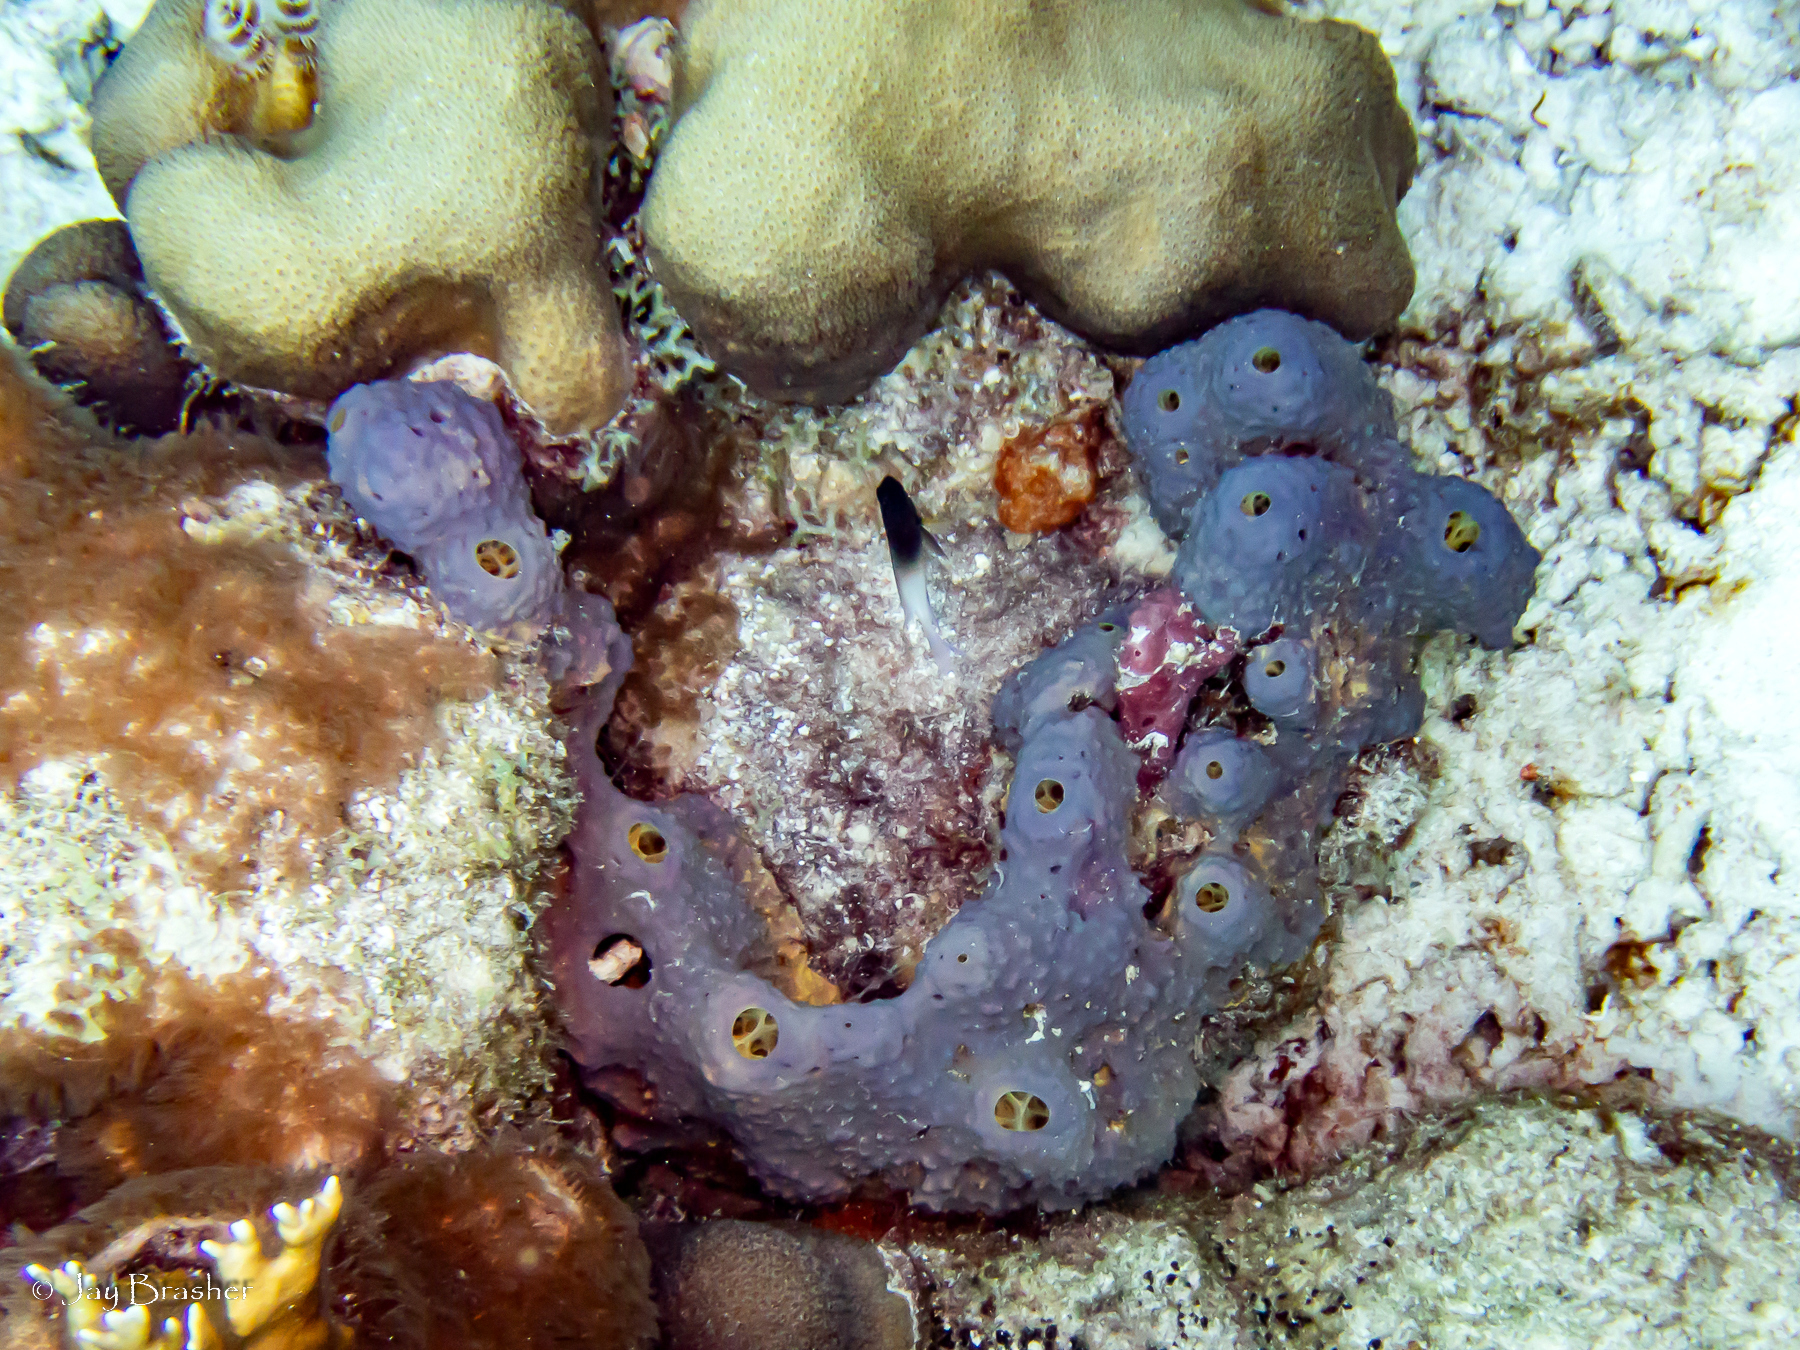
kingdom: Animalia
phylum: Porifera
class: Demospongiae
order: Verongiida
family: Aplysinidae
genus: Aiolochroia
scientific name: Aiolochroia crassa
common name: Branching tube sponge
